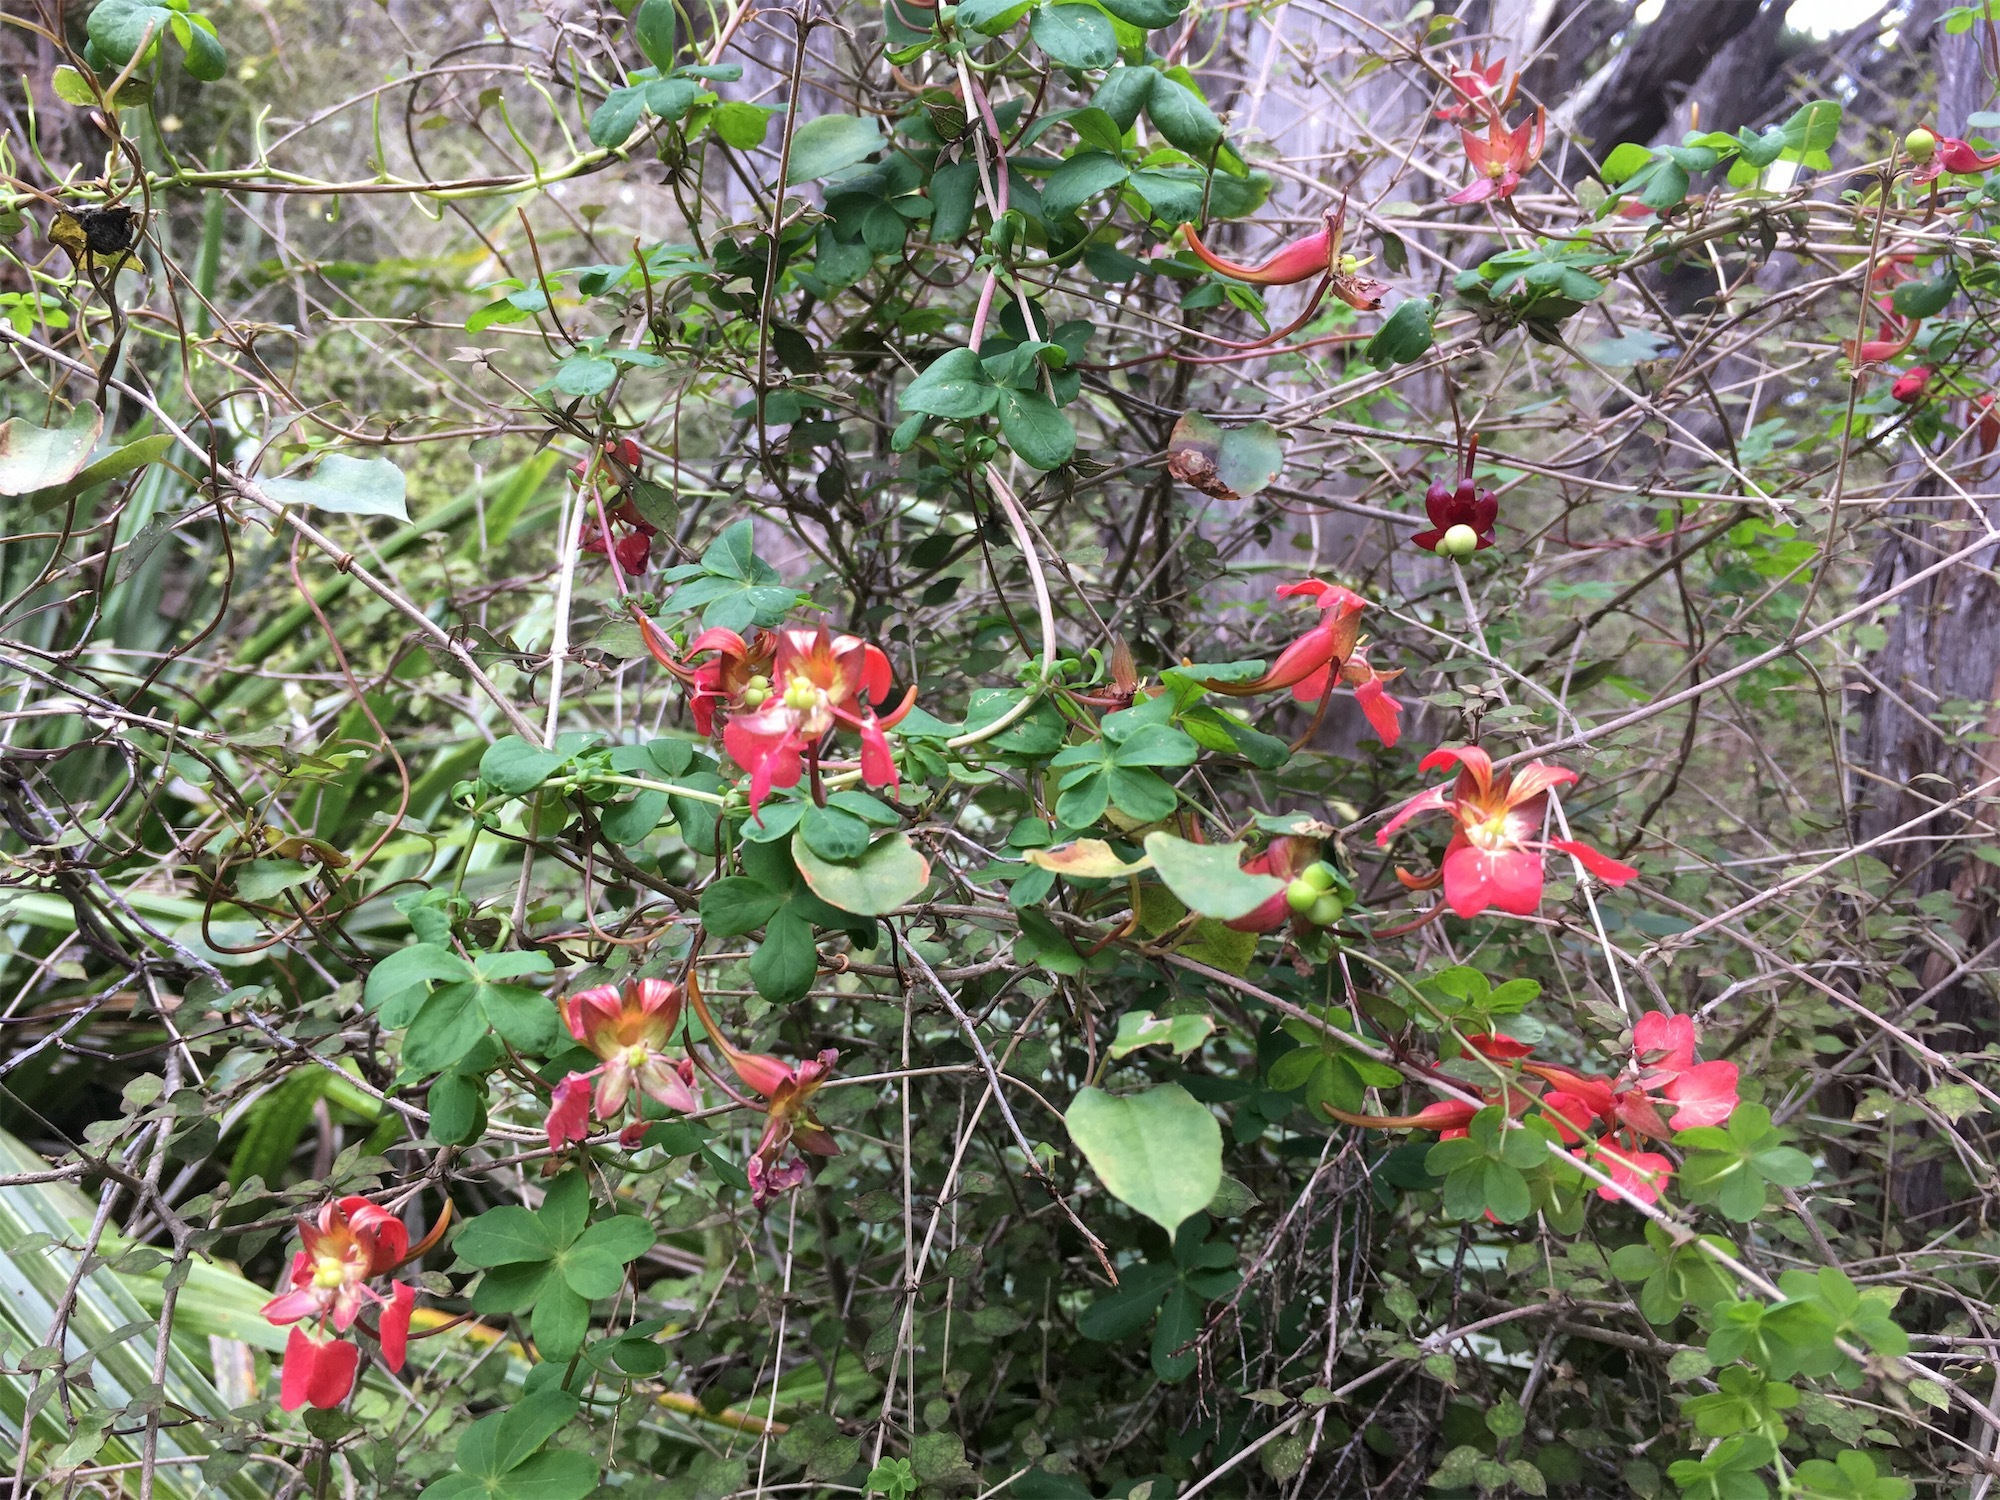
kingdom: Plantae
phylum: Tracheophyta
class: Magnoliopsida
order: Brassicales
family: Tropaeolaceae
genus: Tropaeolum
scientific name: Tropaeolum speciosum
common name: Flame nasturtium
